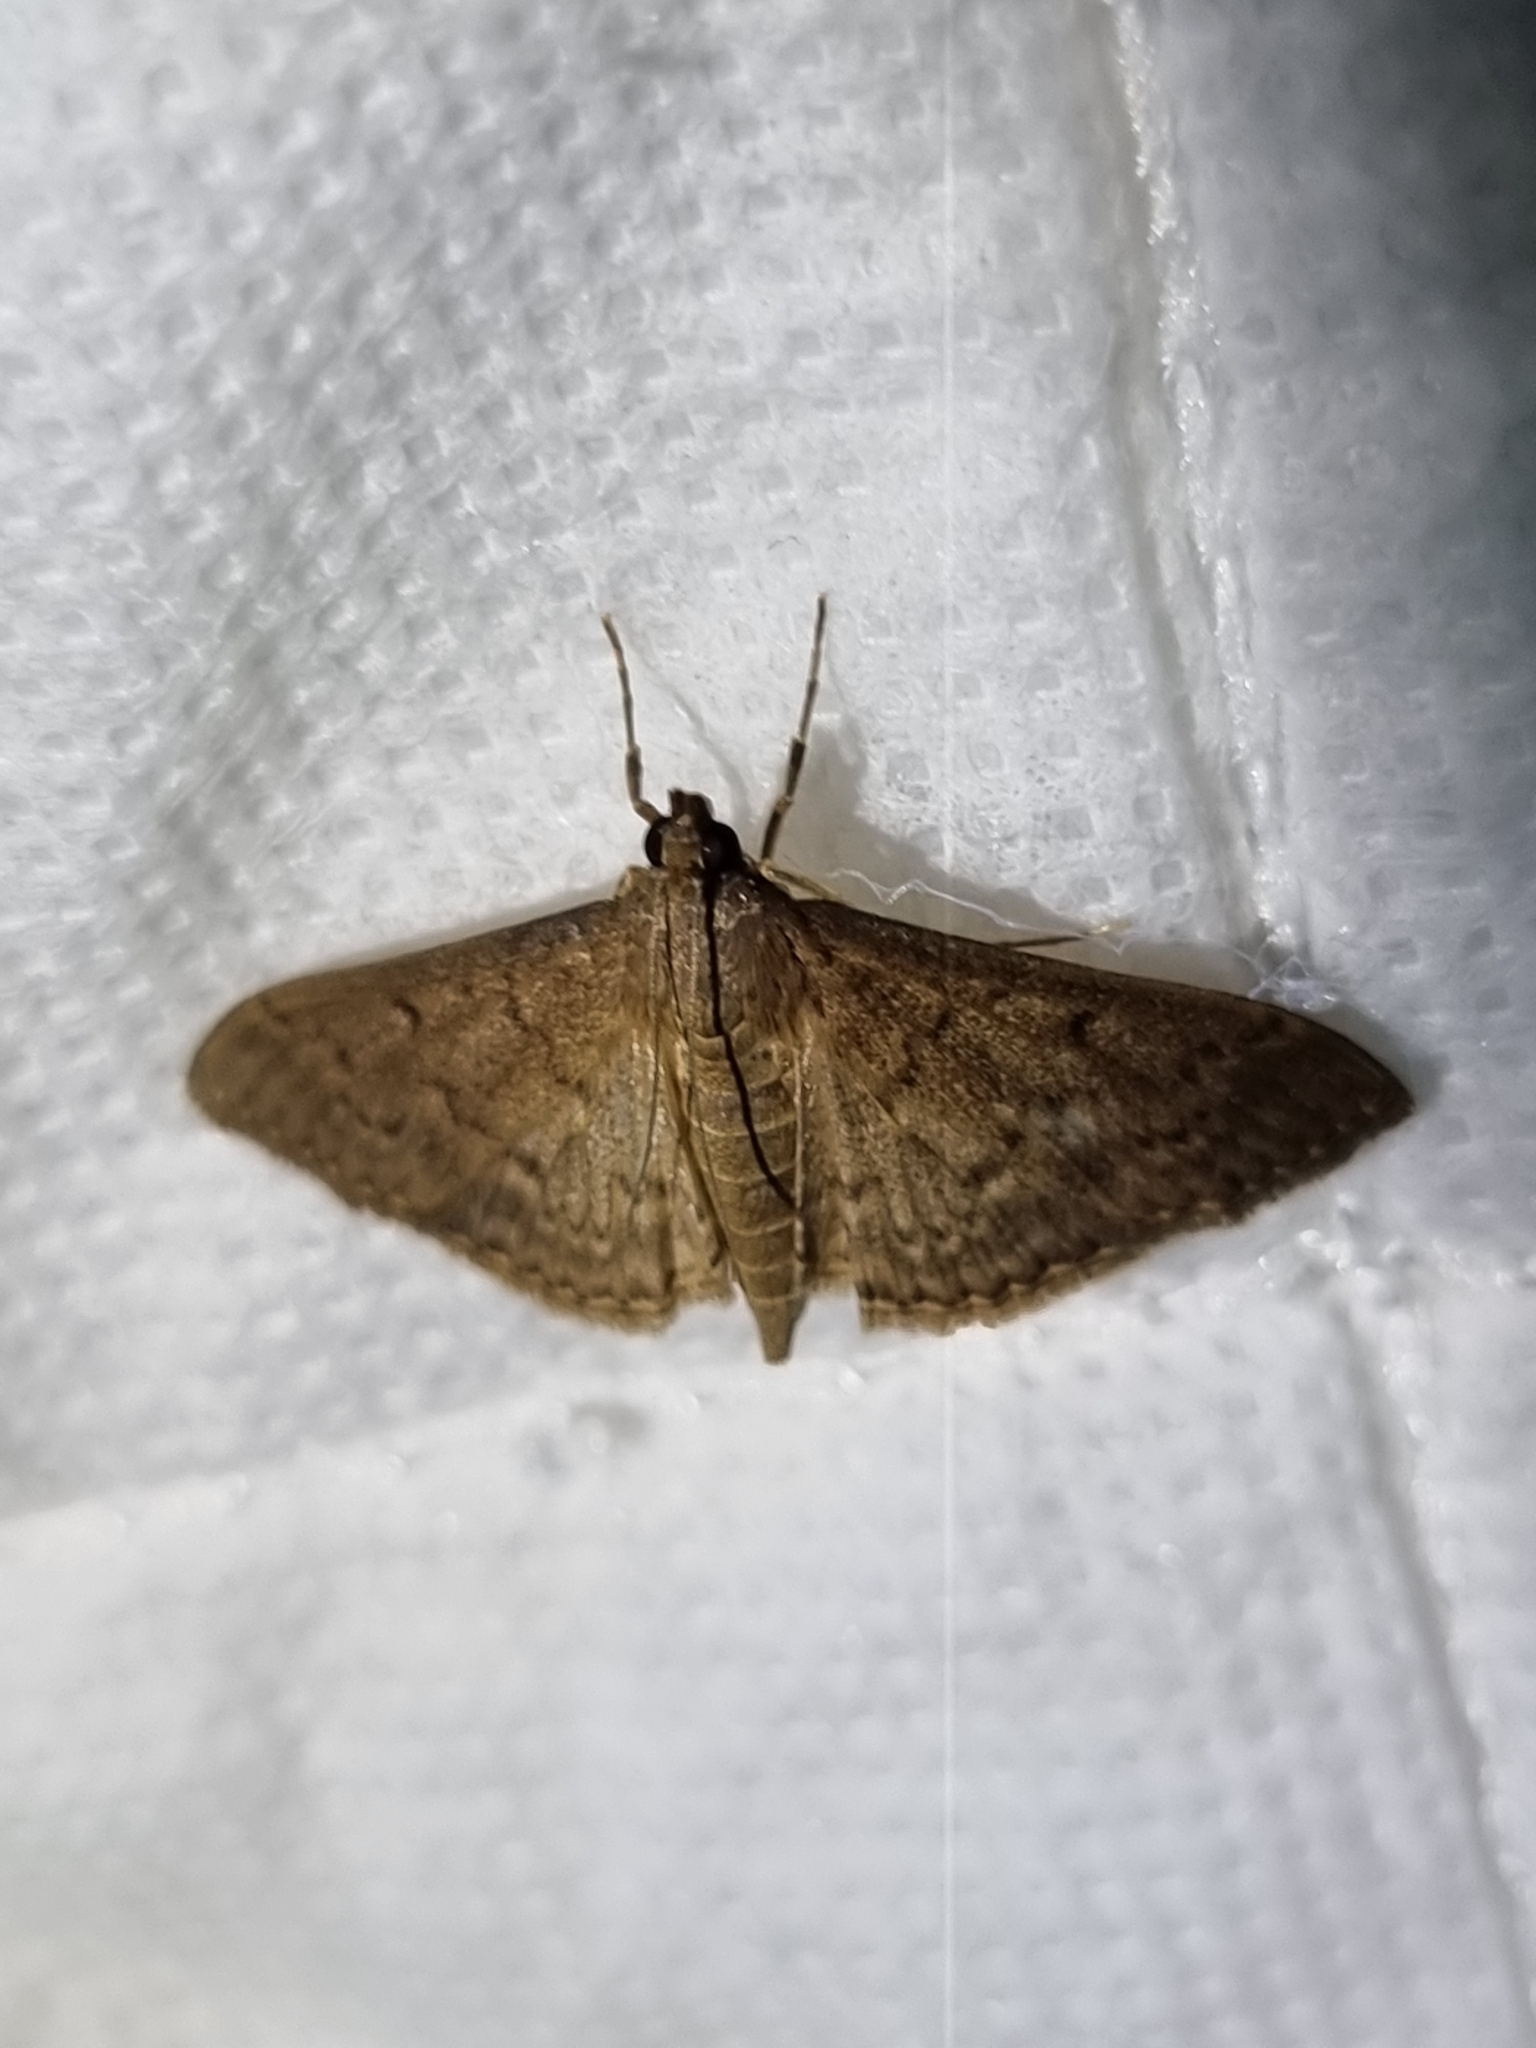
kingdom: Animalia
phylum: Arthropoda
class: Insecta
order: Lepidoptera
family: Crambidae
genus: Herpetogramma
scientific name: Herpetogramma licarsisalis
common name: Grass webworm
